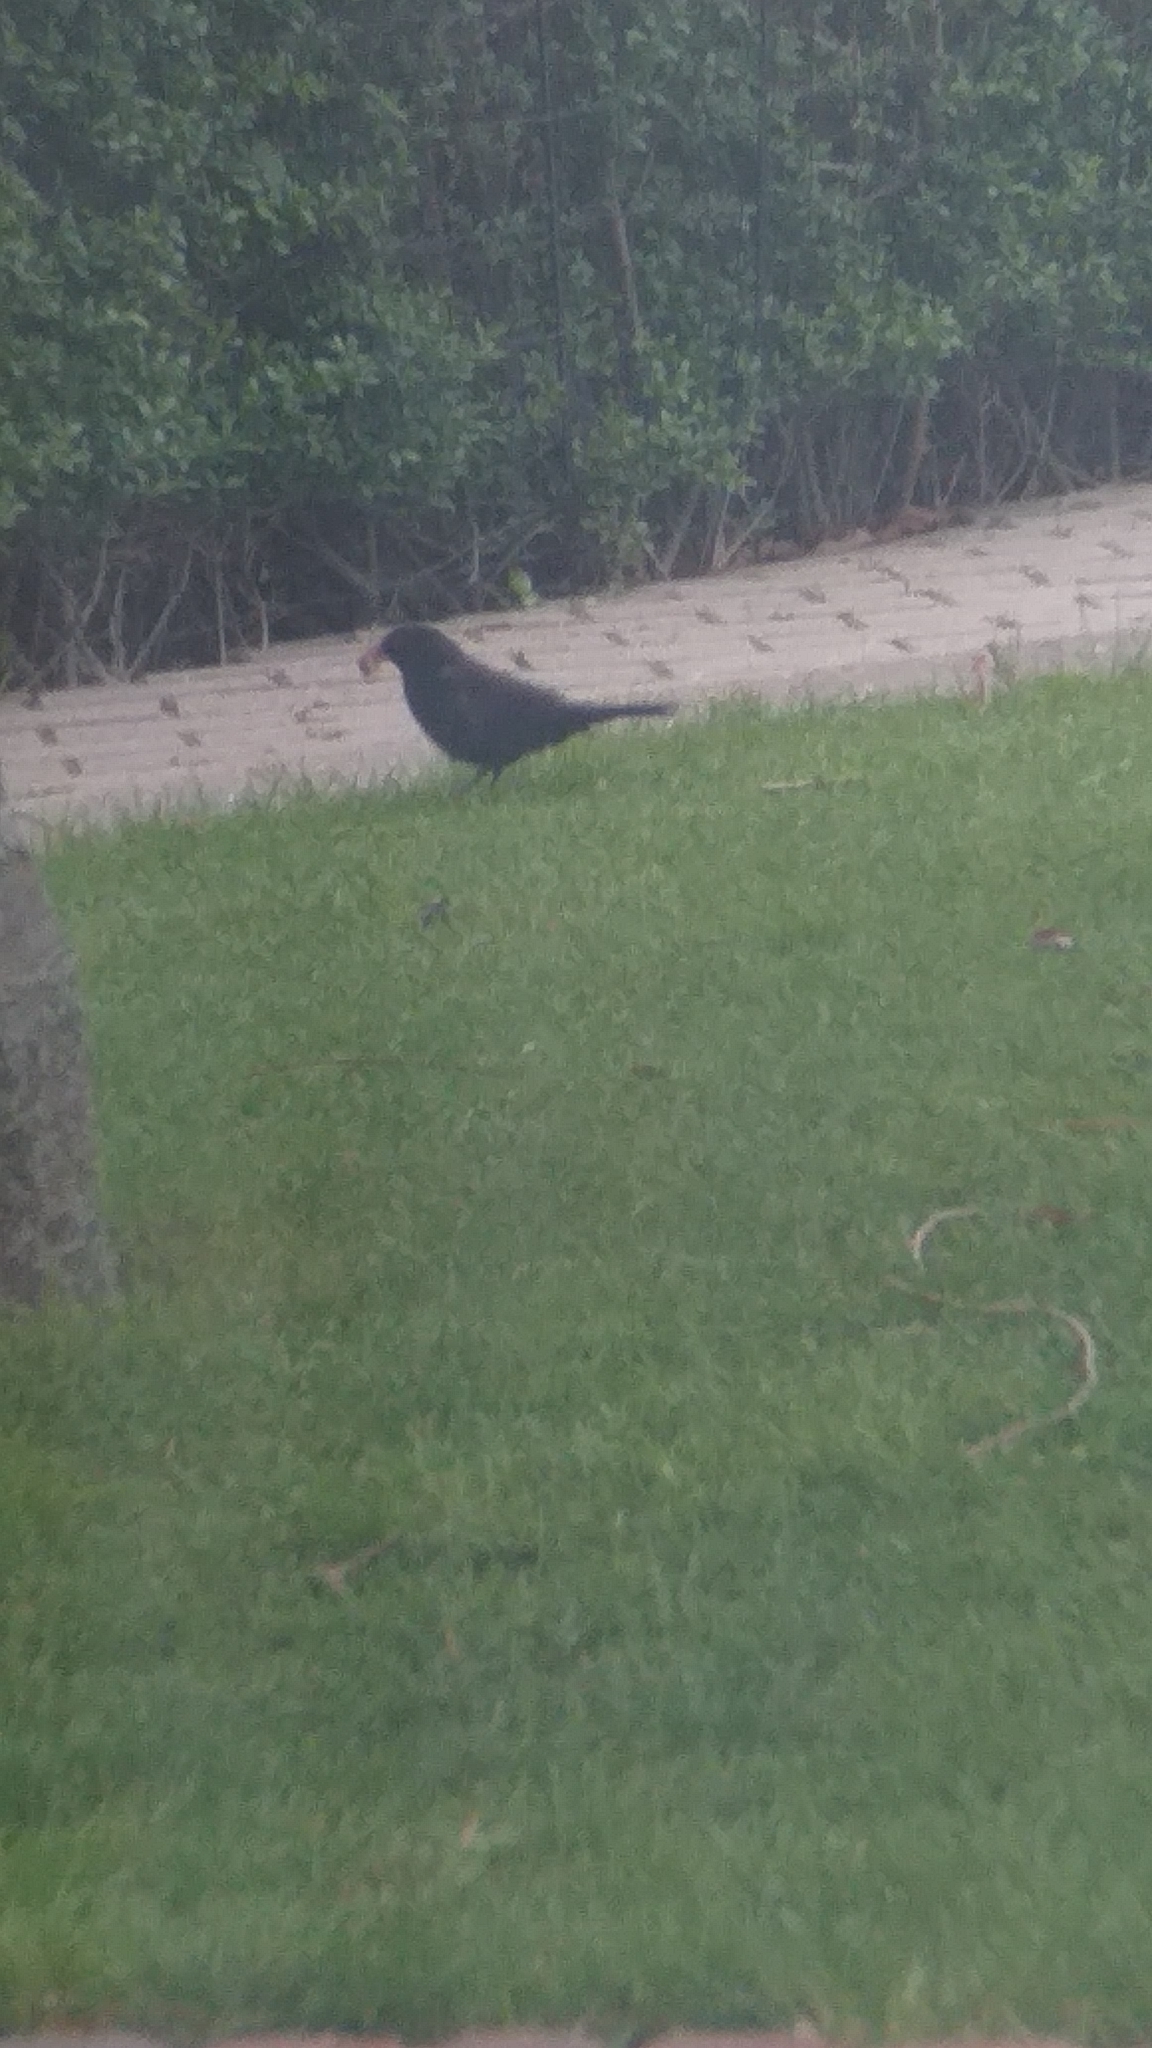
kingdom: Animalia
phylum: Chordata
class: Aves
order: Passeriformes
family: Turdidae
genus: Turdus
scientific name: Turdus merula
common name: Common blackbird
